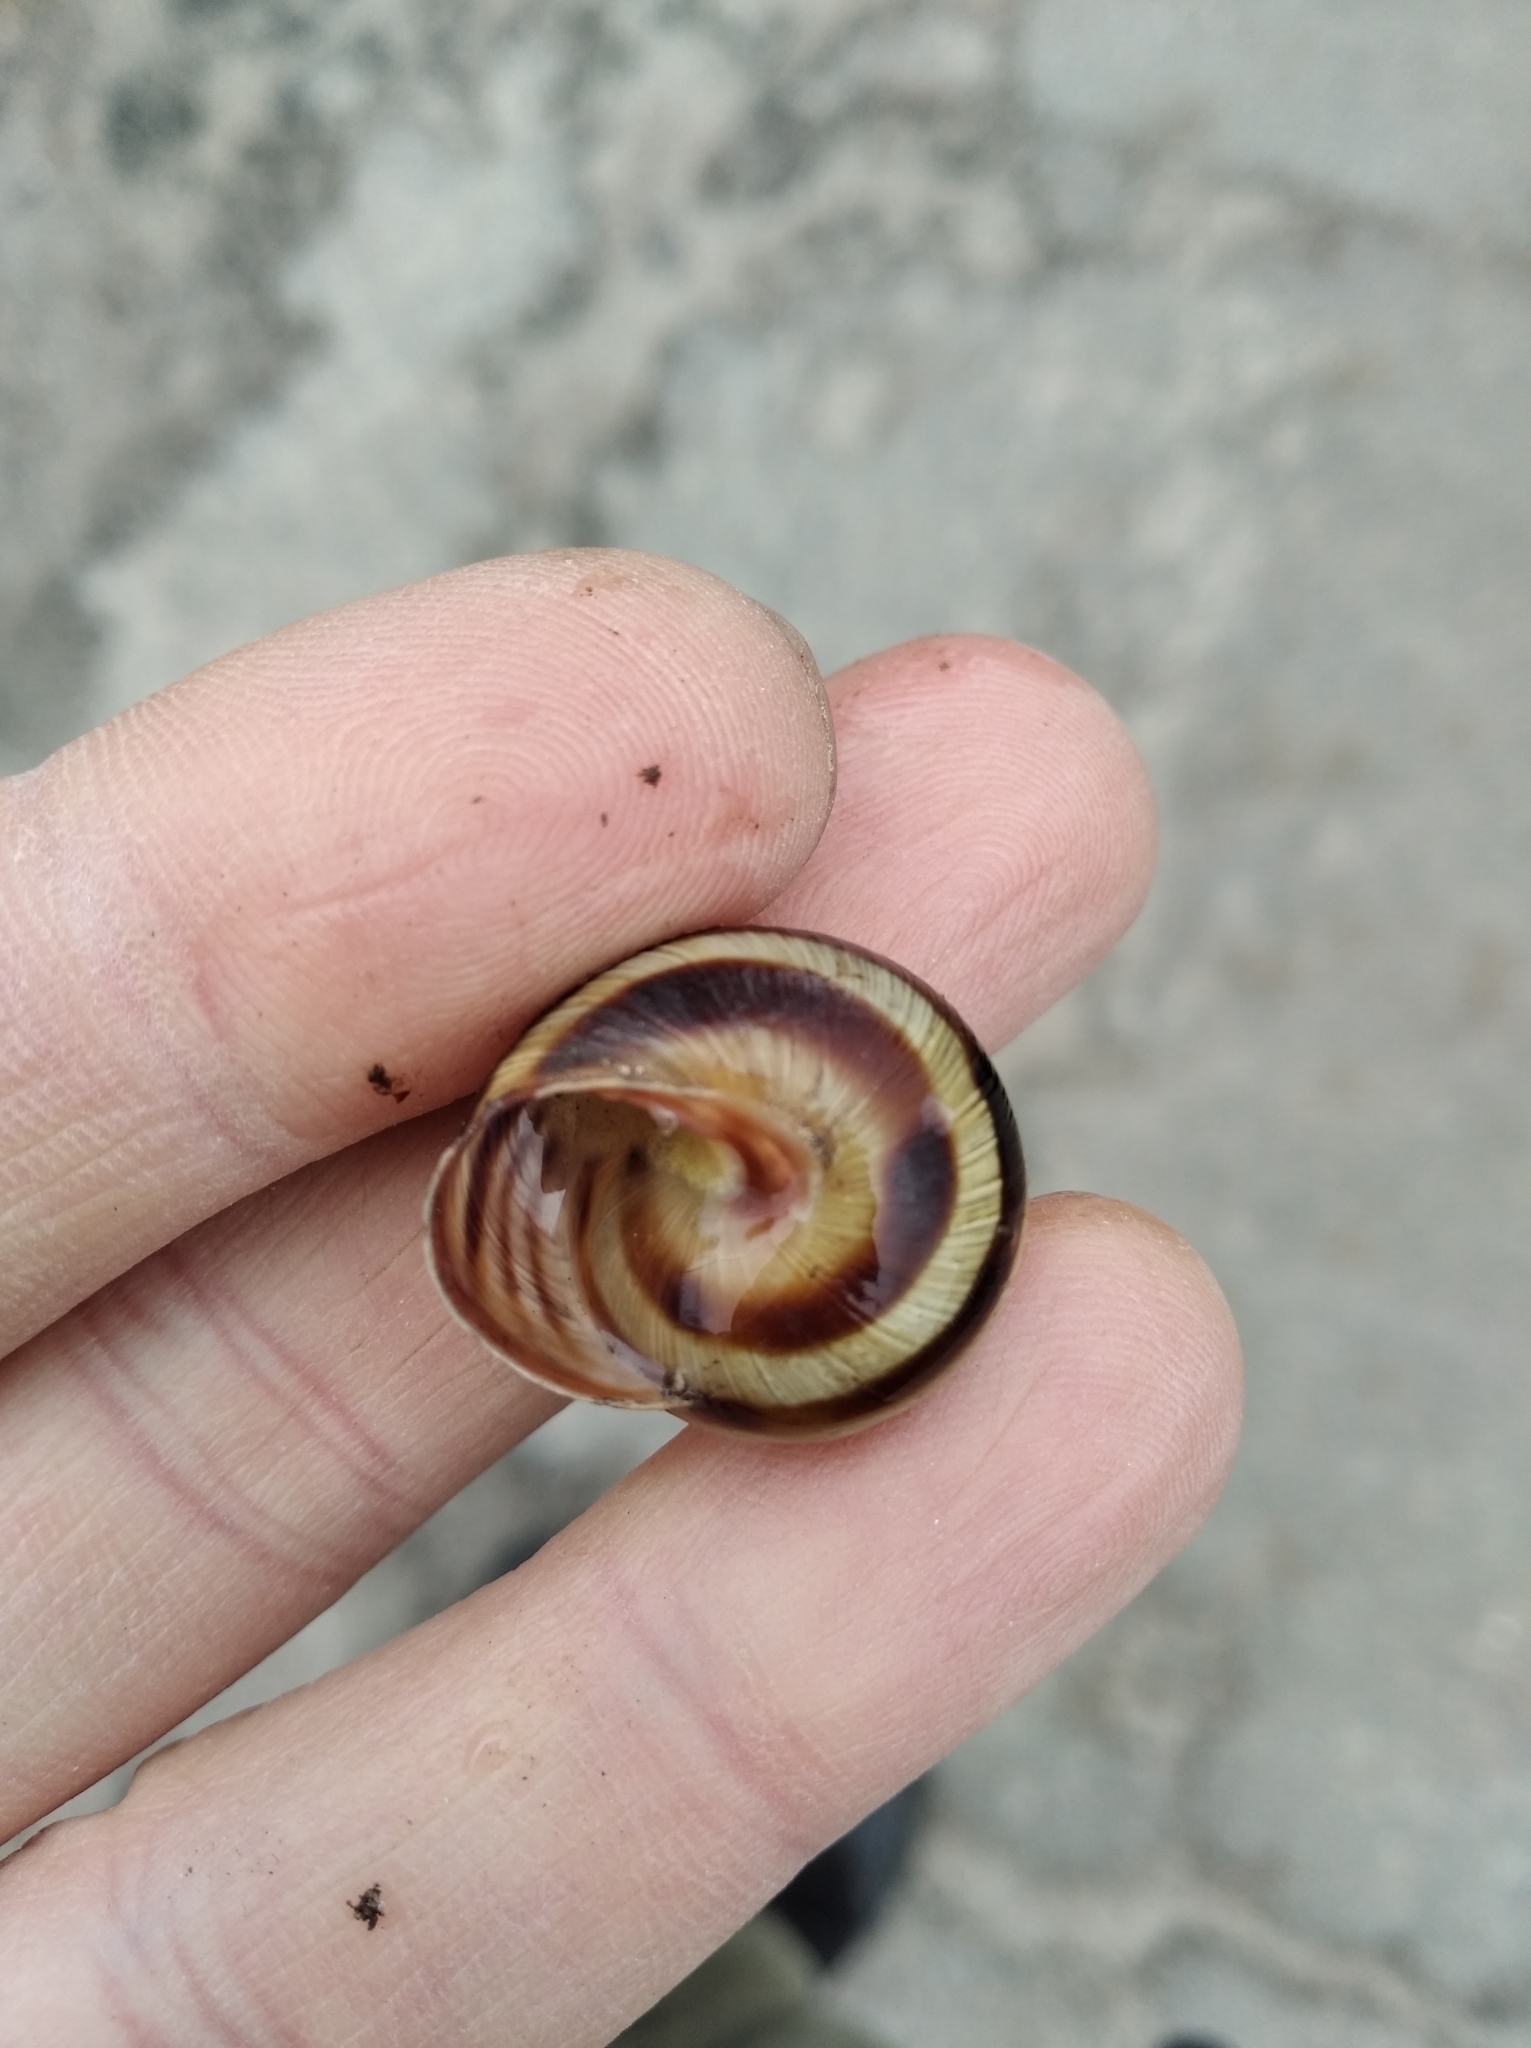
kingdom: Animalia
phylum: Mollusca
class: Gastropoda
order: Stylommatophora
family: Helicidae
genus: Caucasotachea
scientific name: Caucasotachea vindobonensis
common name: European helicid land snail
